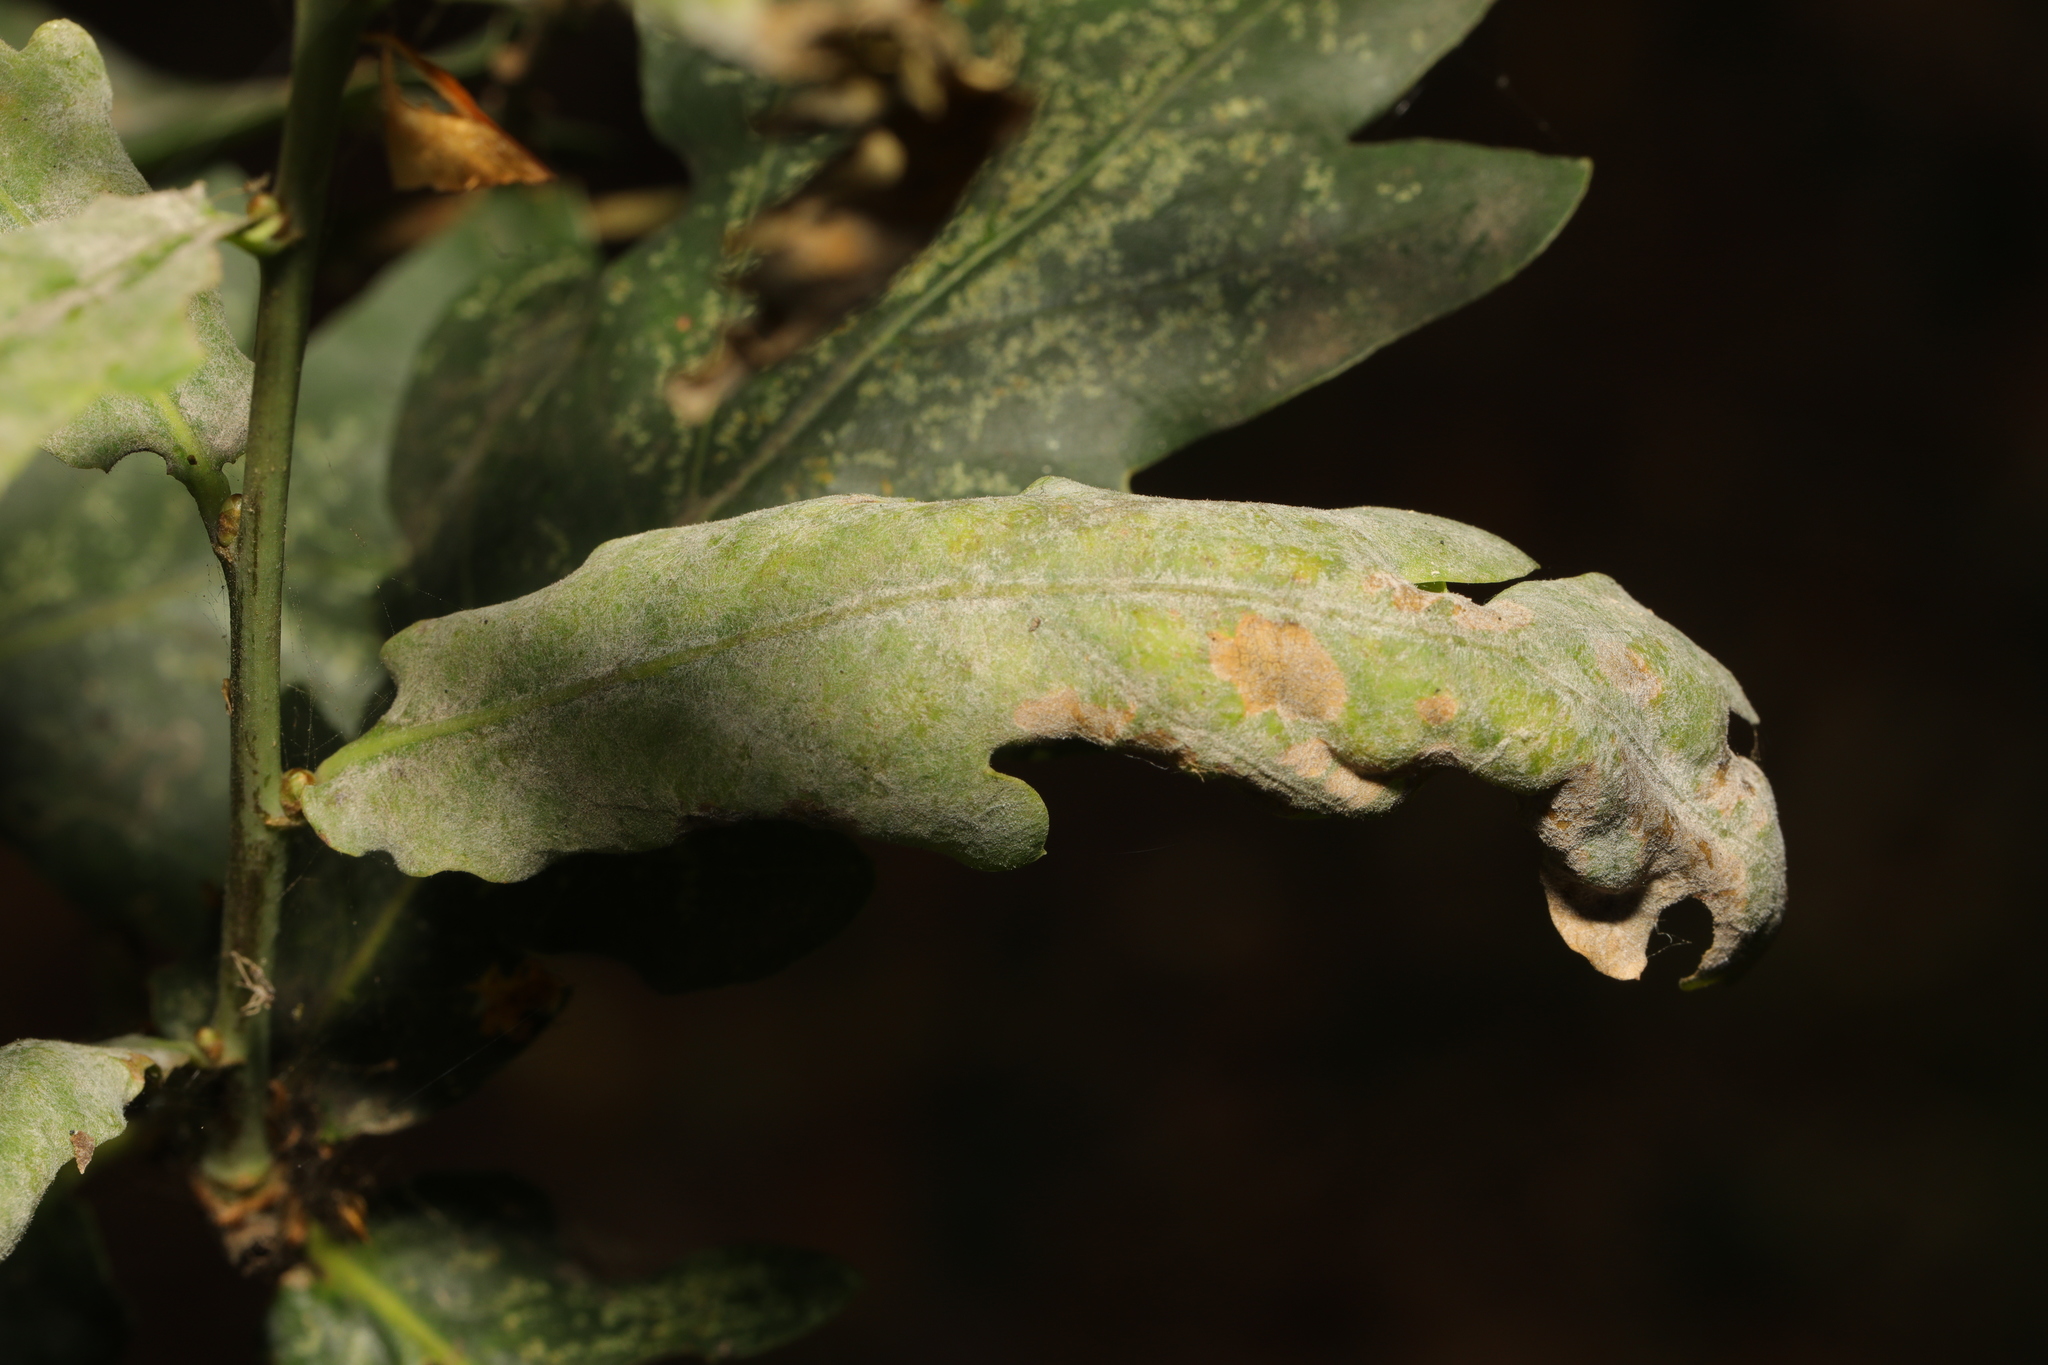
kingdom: Fungi
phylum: Ascomycota
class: Leotiomycetes
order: Helotiales
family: Erysiphaceae
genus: Erysiphe
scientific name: Erysiphe alphitoides
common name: Oak mildew
